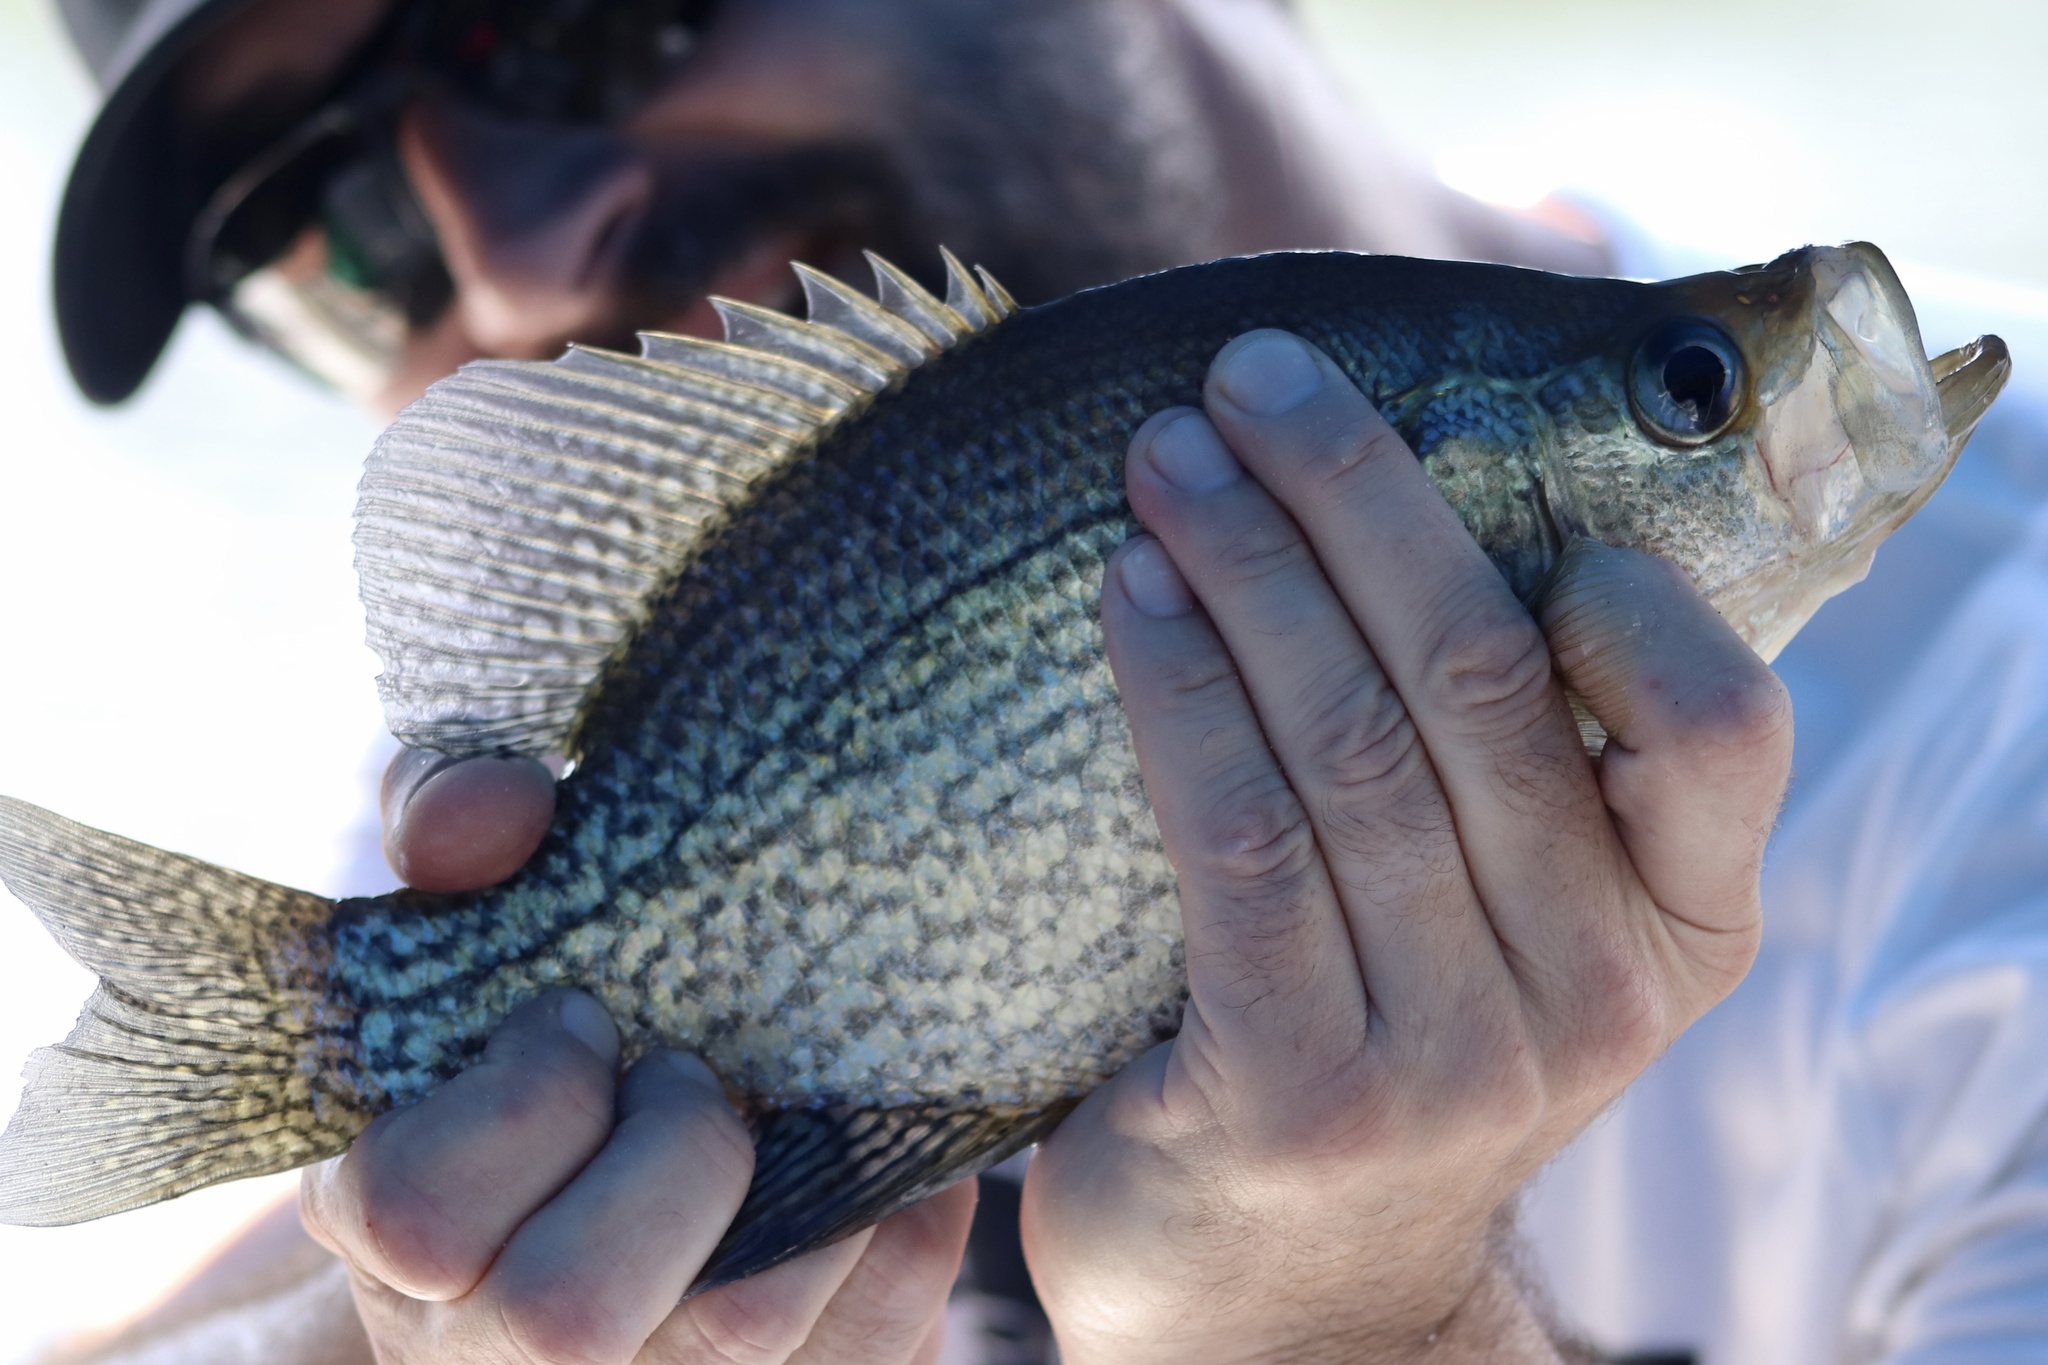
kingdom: Animalia
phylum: Chordata
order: Perciformes
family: Centrarchidae
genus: Pomoxis
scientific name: Pomoxis nigromaculatus
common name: Black crappie
